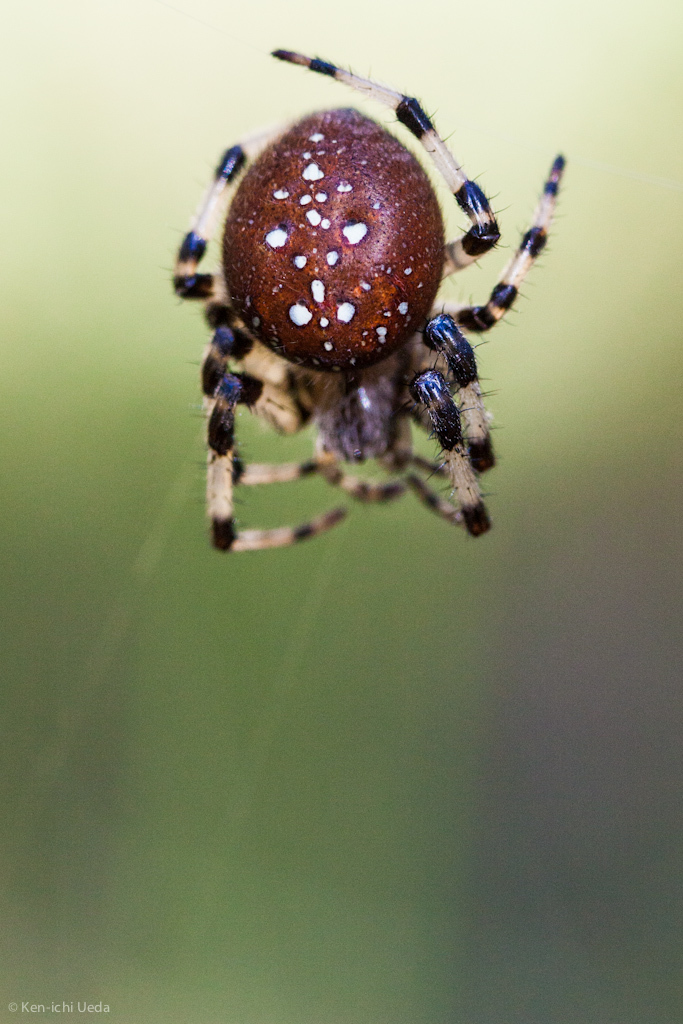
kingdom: Animalia
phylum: Arthropoda
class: Arachnida
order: Araneae
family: Araneidae
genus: Araneus
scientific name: Araneus trifolium
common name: Shamrock orbweaver
